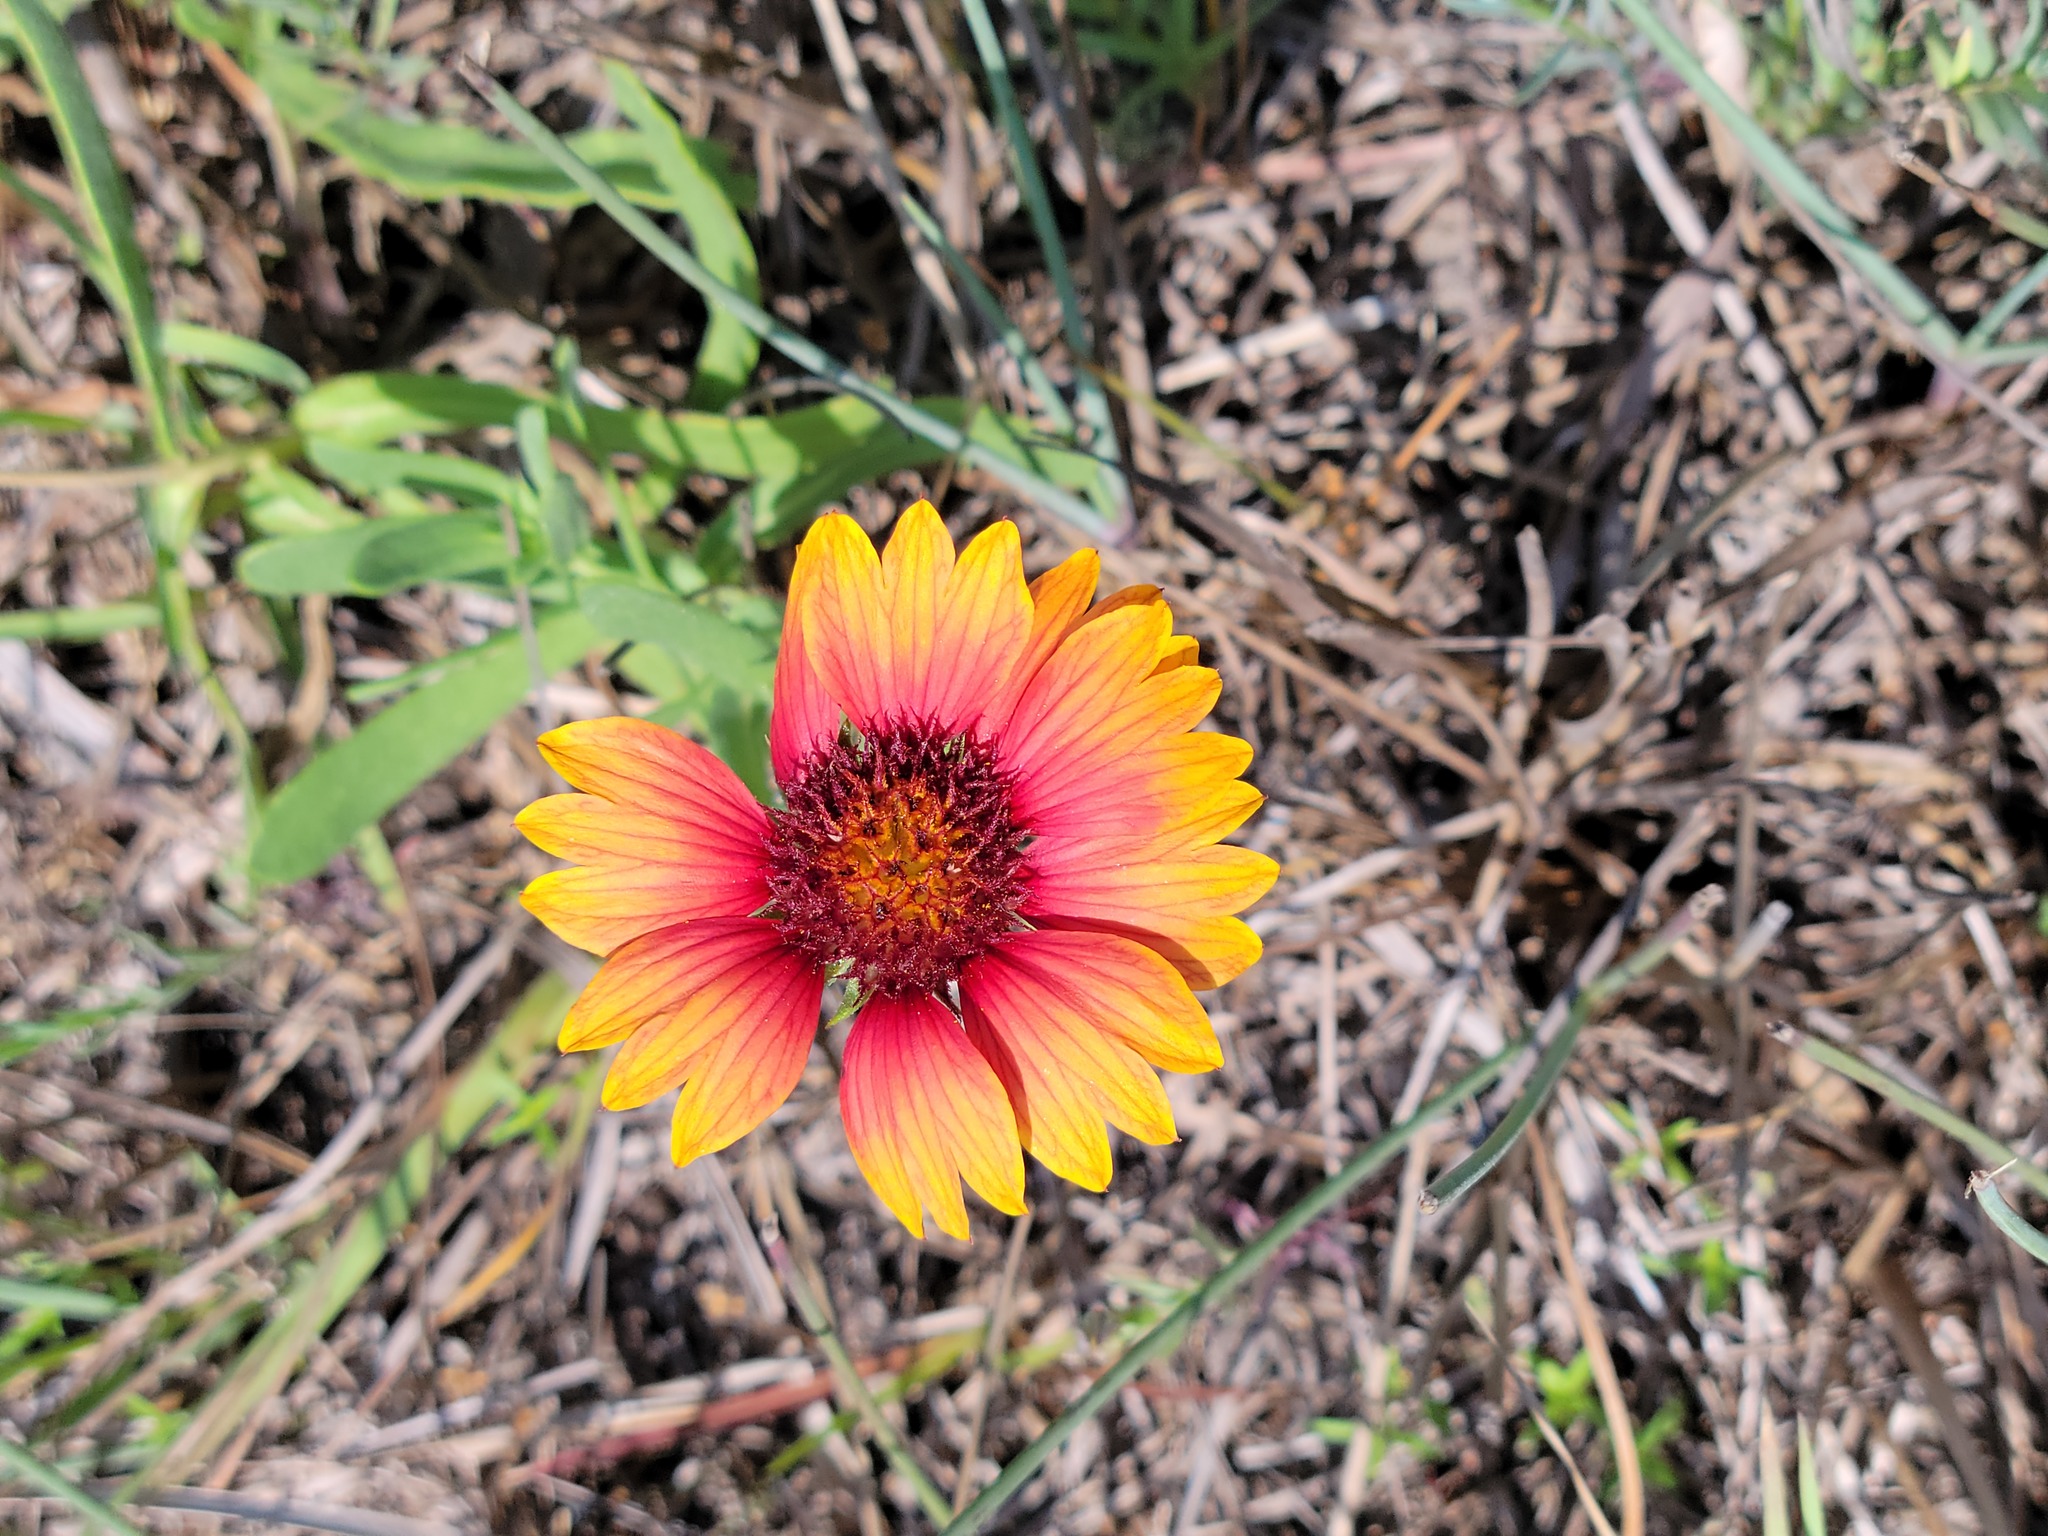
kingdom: Plantae
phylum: Tracheophyta
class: Magnoliopsida
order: Asterales
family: Asteraceae
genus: Gaillardia
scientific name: Gaillardia pulchella
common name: Firewheel
